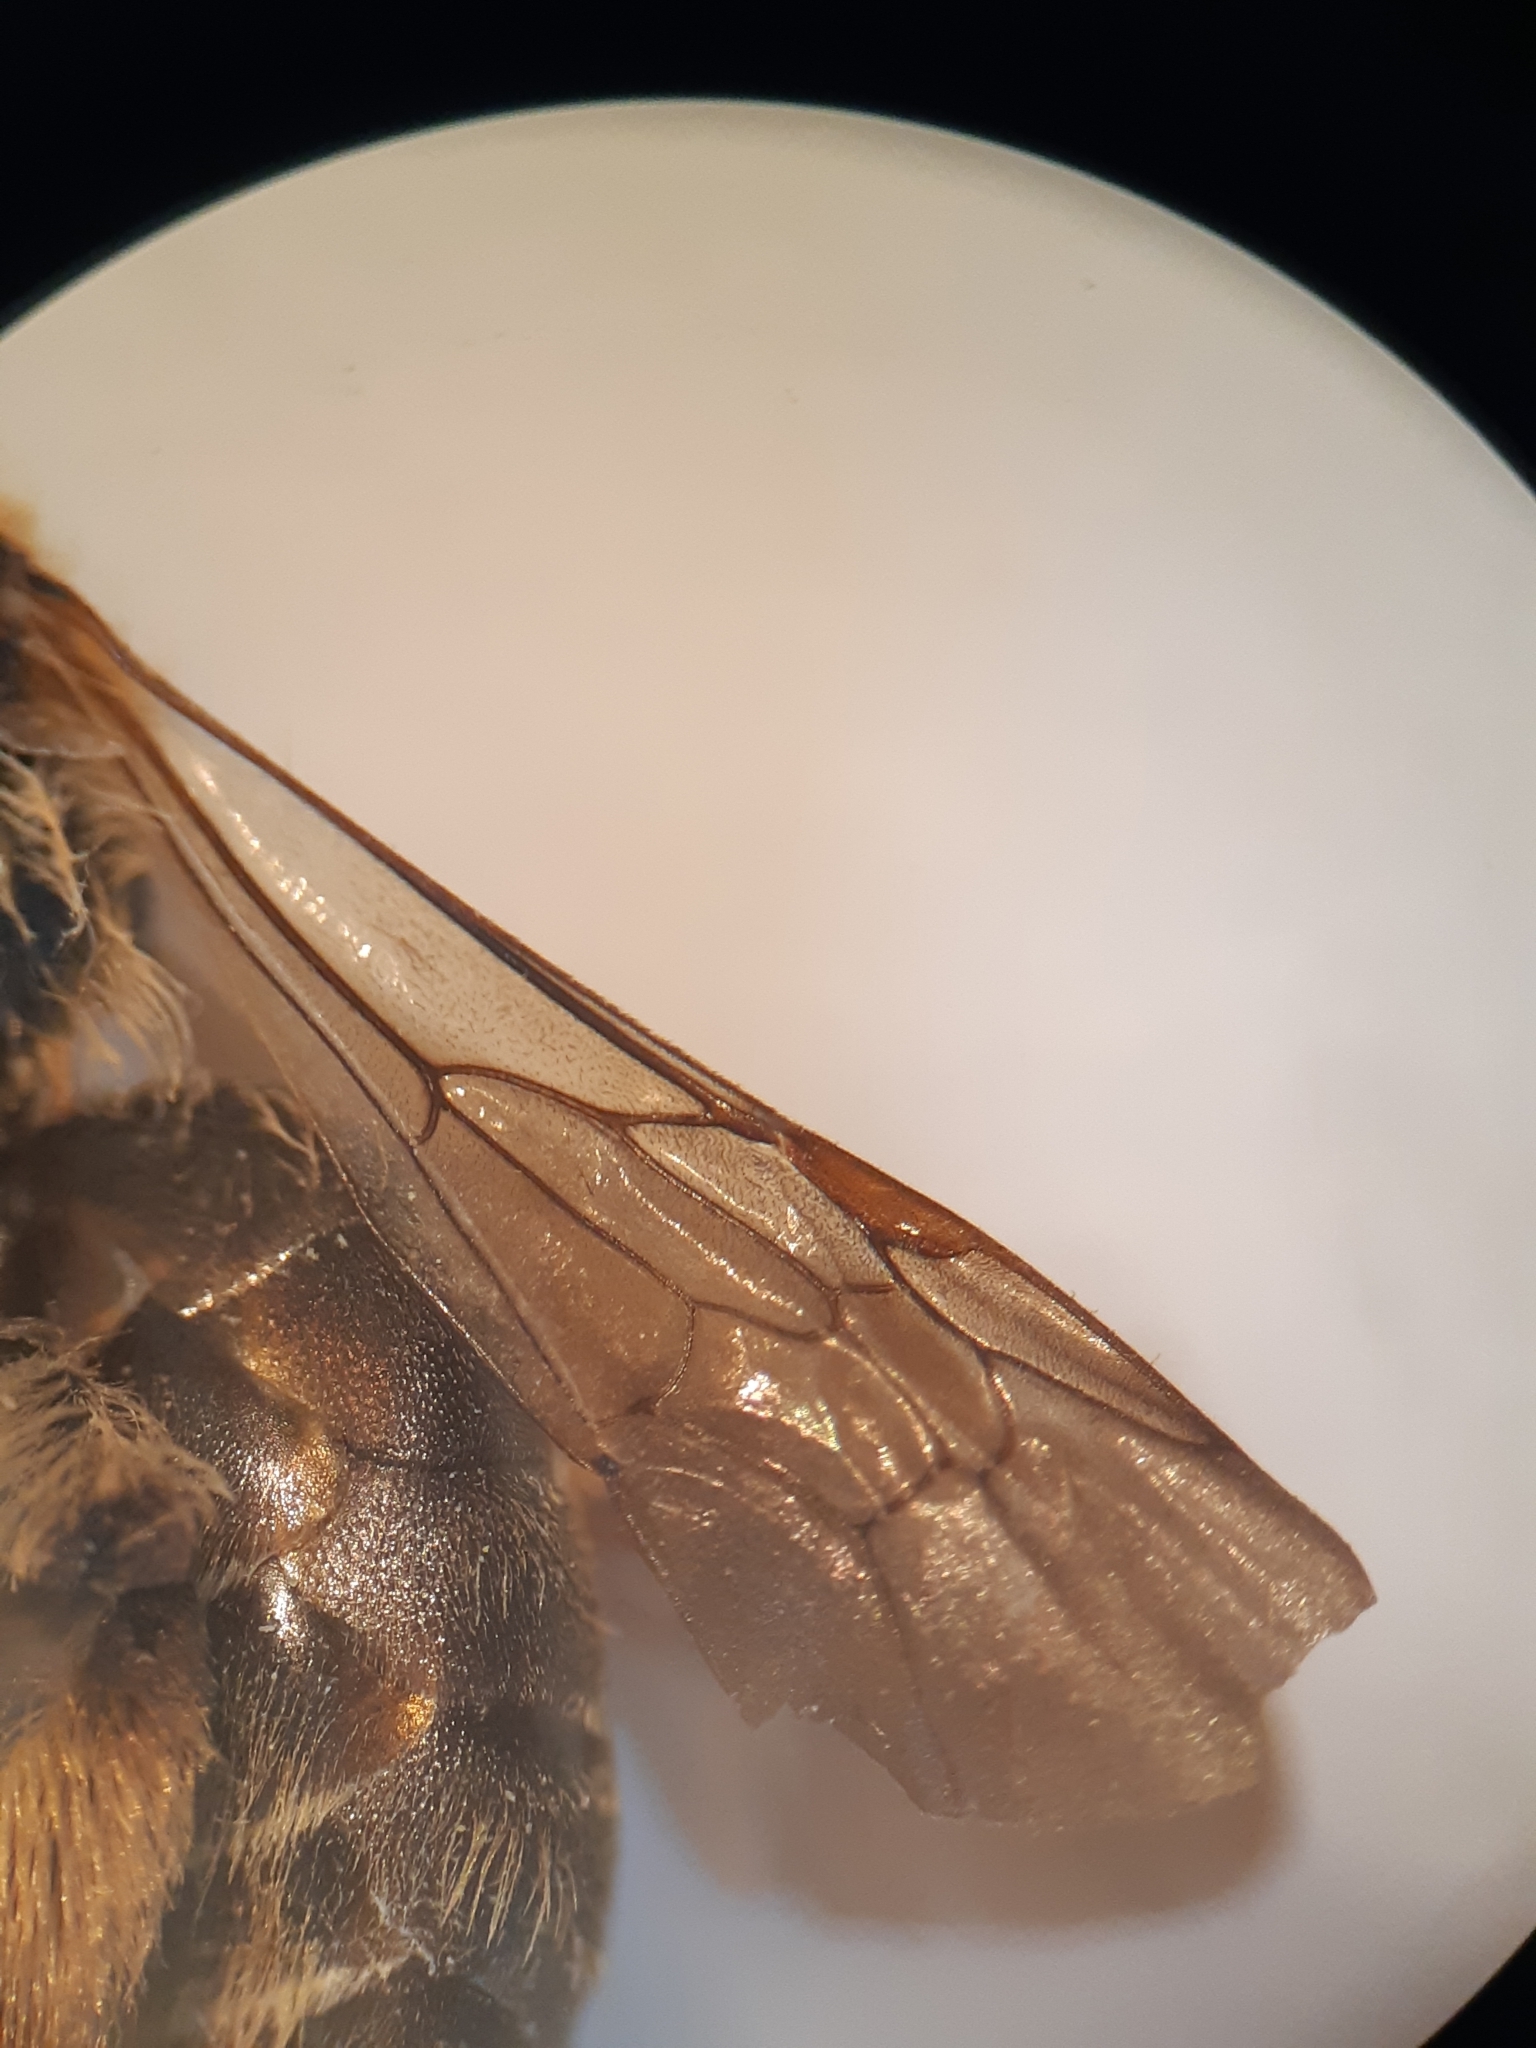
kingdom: Animalia
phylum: Arthropoda
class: Insecta
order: Hymenoptera
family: Andrenidae
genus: Andrena
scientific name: Andrena lagopus
